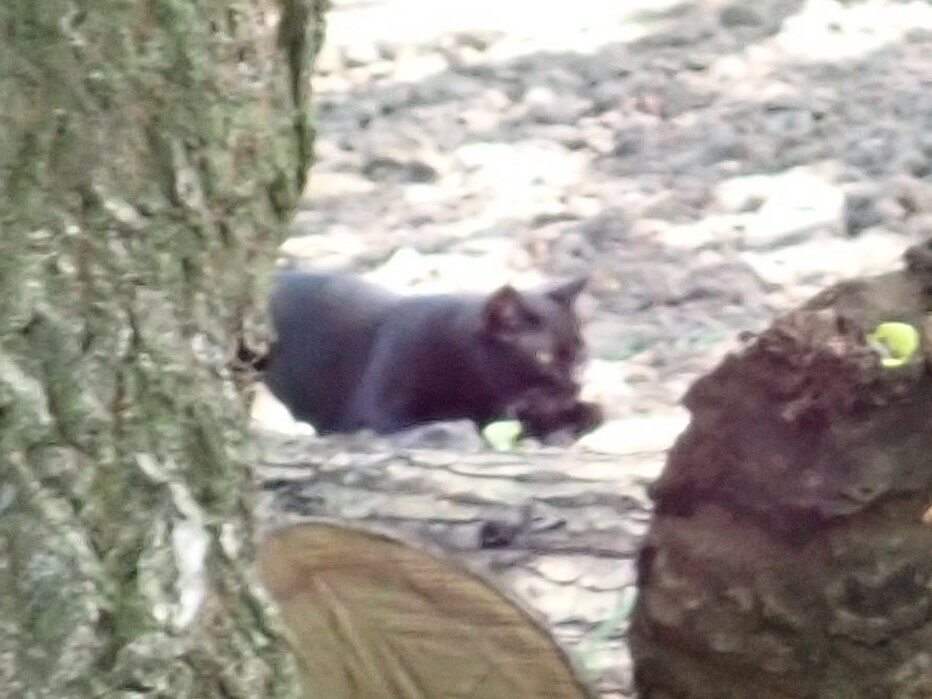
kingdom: Animalia
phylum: Chordata
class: Mammalia
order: Carnivora
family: Felidae
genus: Felis
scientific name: Felis catus
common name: Domestic cat
